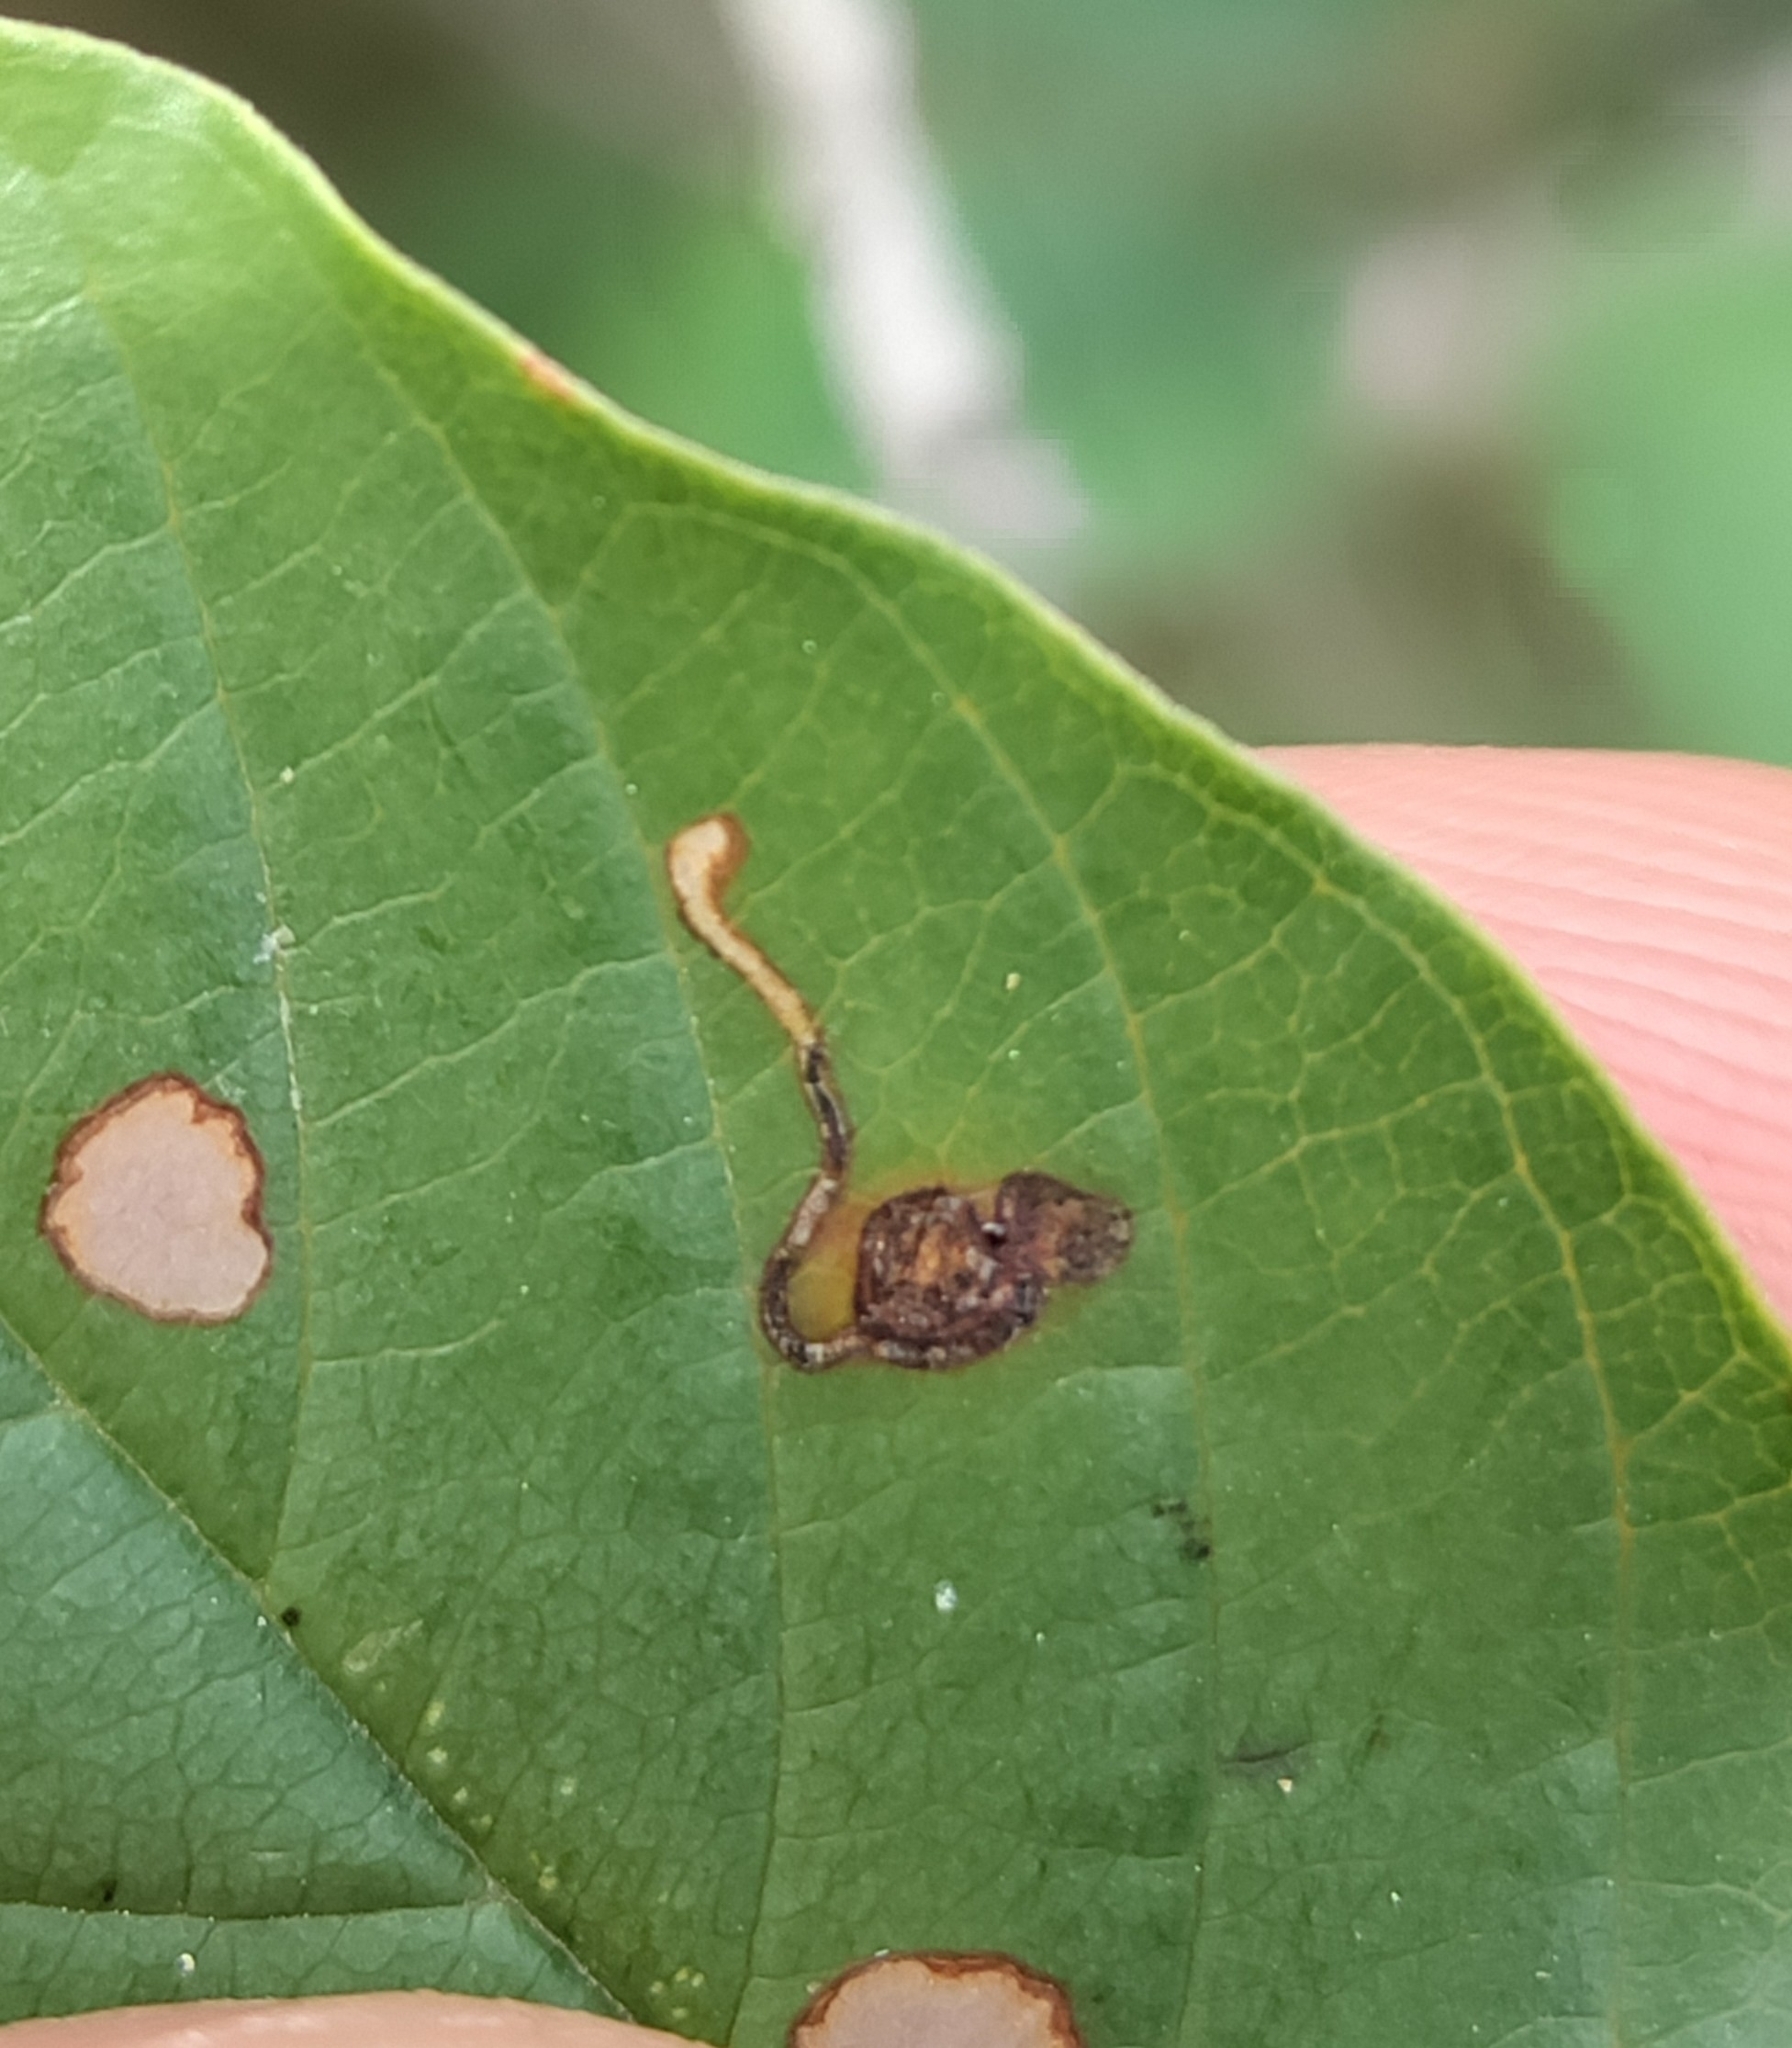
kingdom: Animalia
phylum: Arthropoda
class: Insecta
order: Lepidoptera
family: Bucculatricidae
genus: Bucculatrix
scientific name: Bucculatrix frangutella
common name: Buckthorn bent-wing
